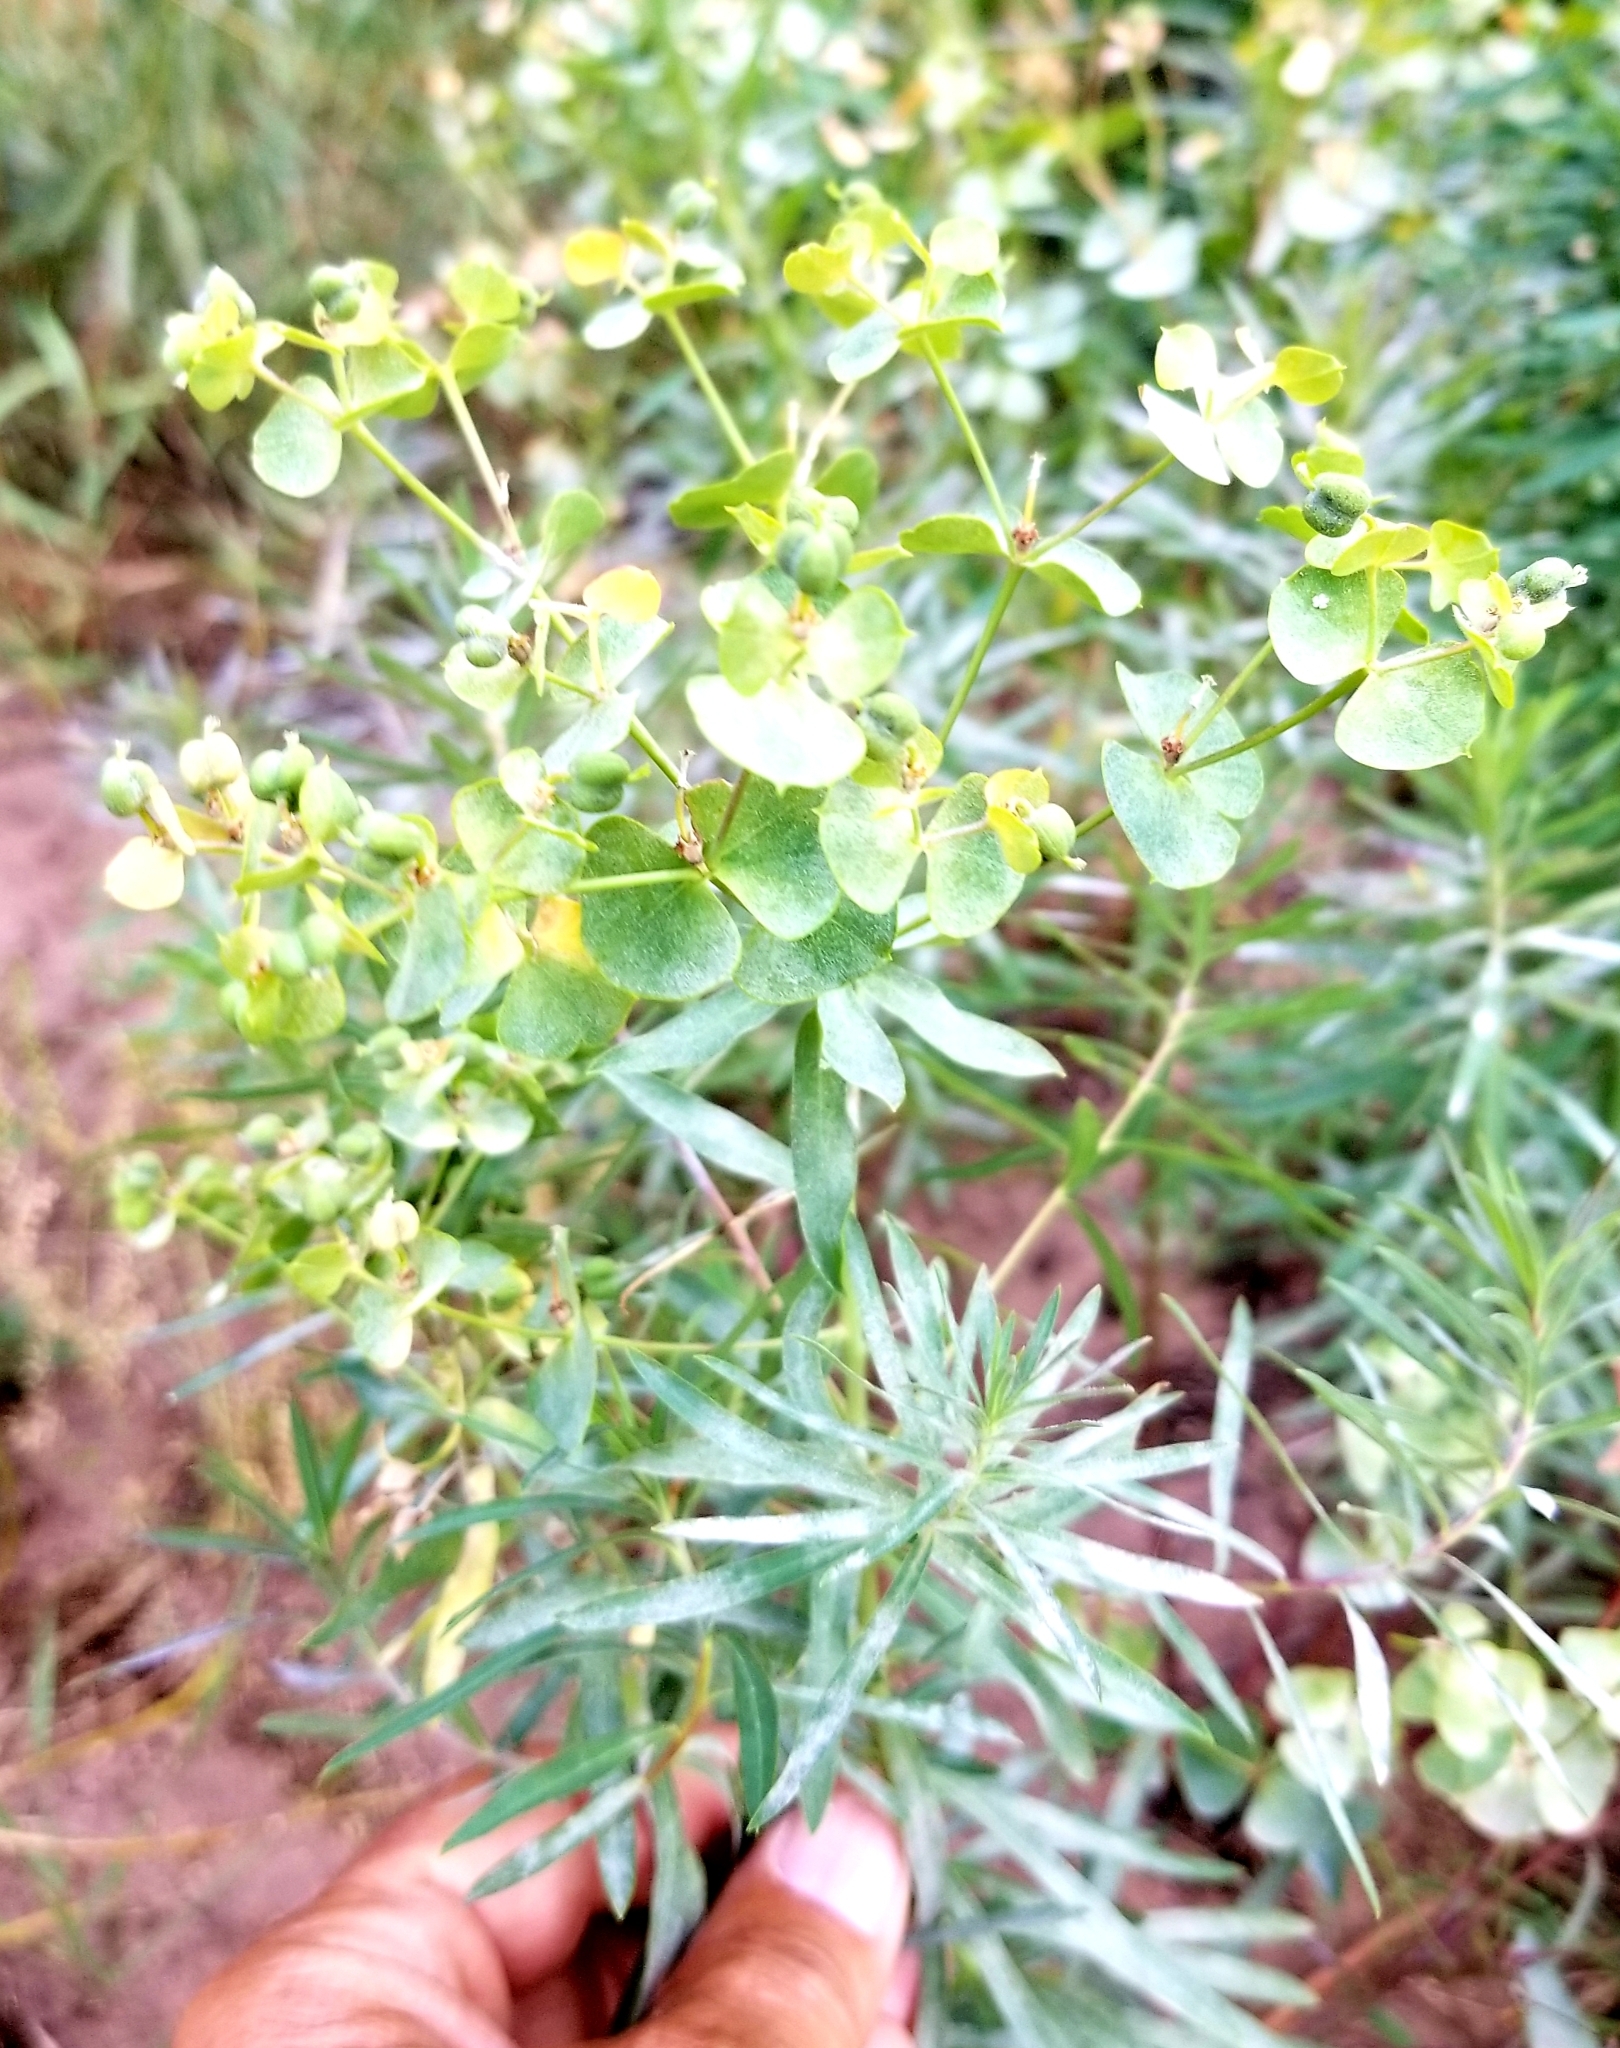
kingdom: Plantae
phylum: Tracheophyta
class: Magnoliopsida
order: Malpighiales
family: Euphorbiaceae
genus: Euphorbia
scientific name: Euphorbia virgata
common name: Leafy spurge
